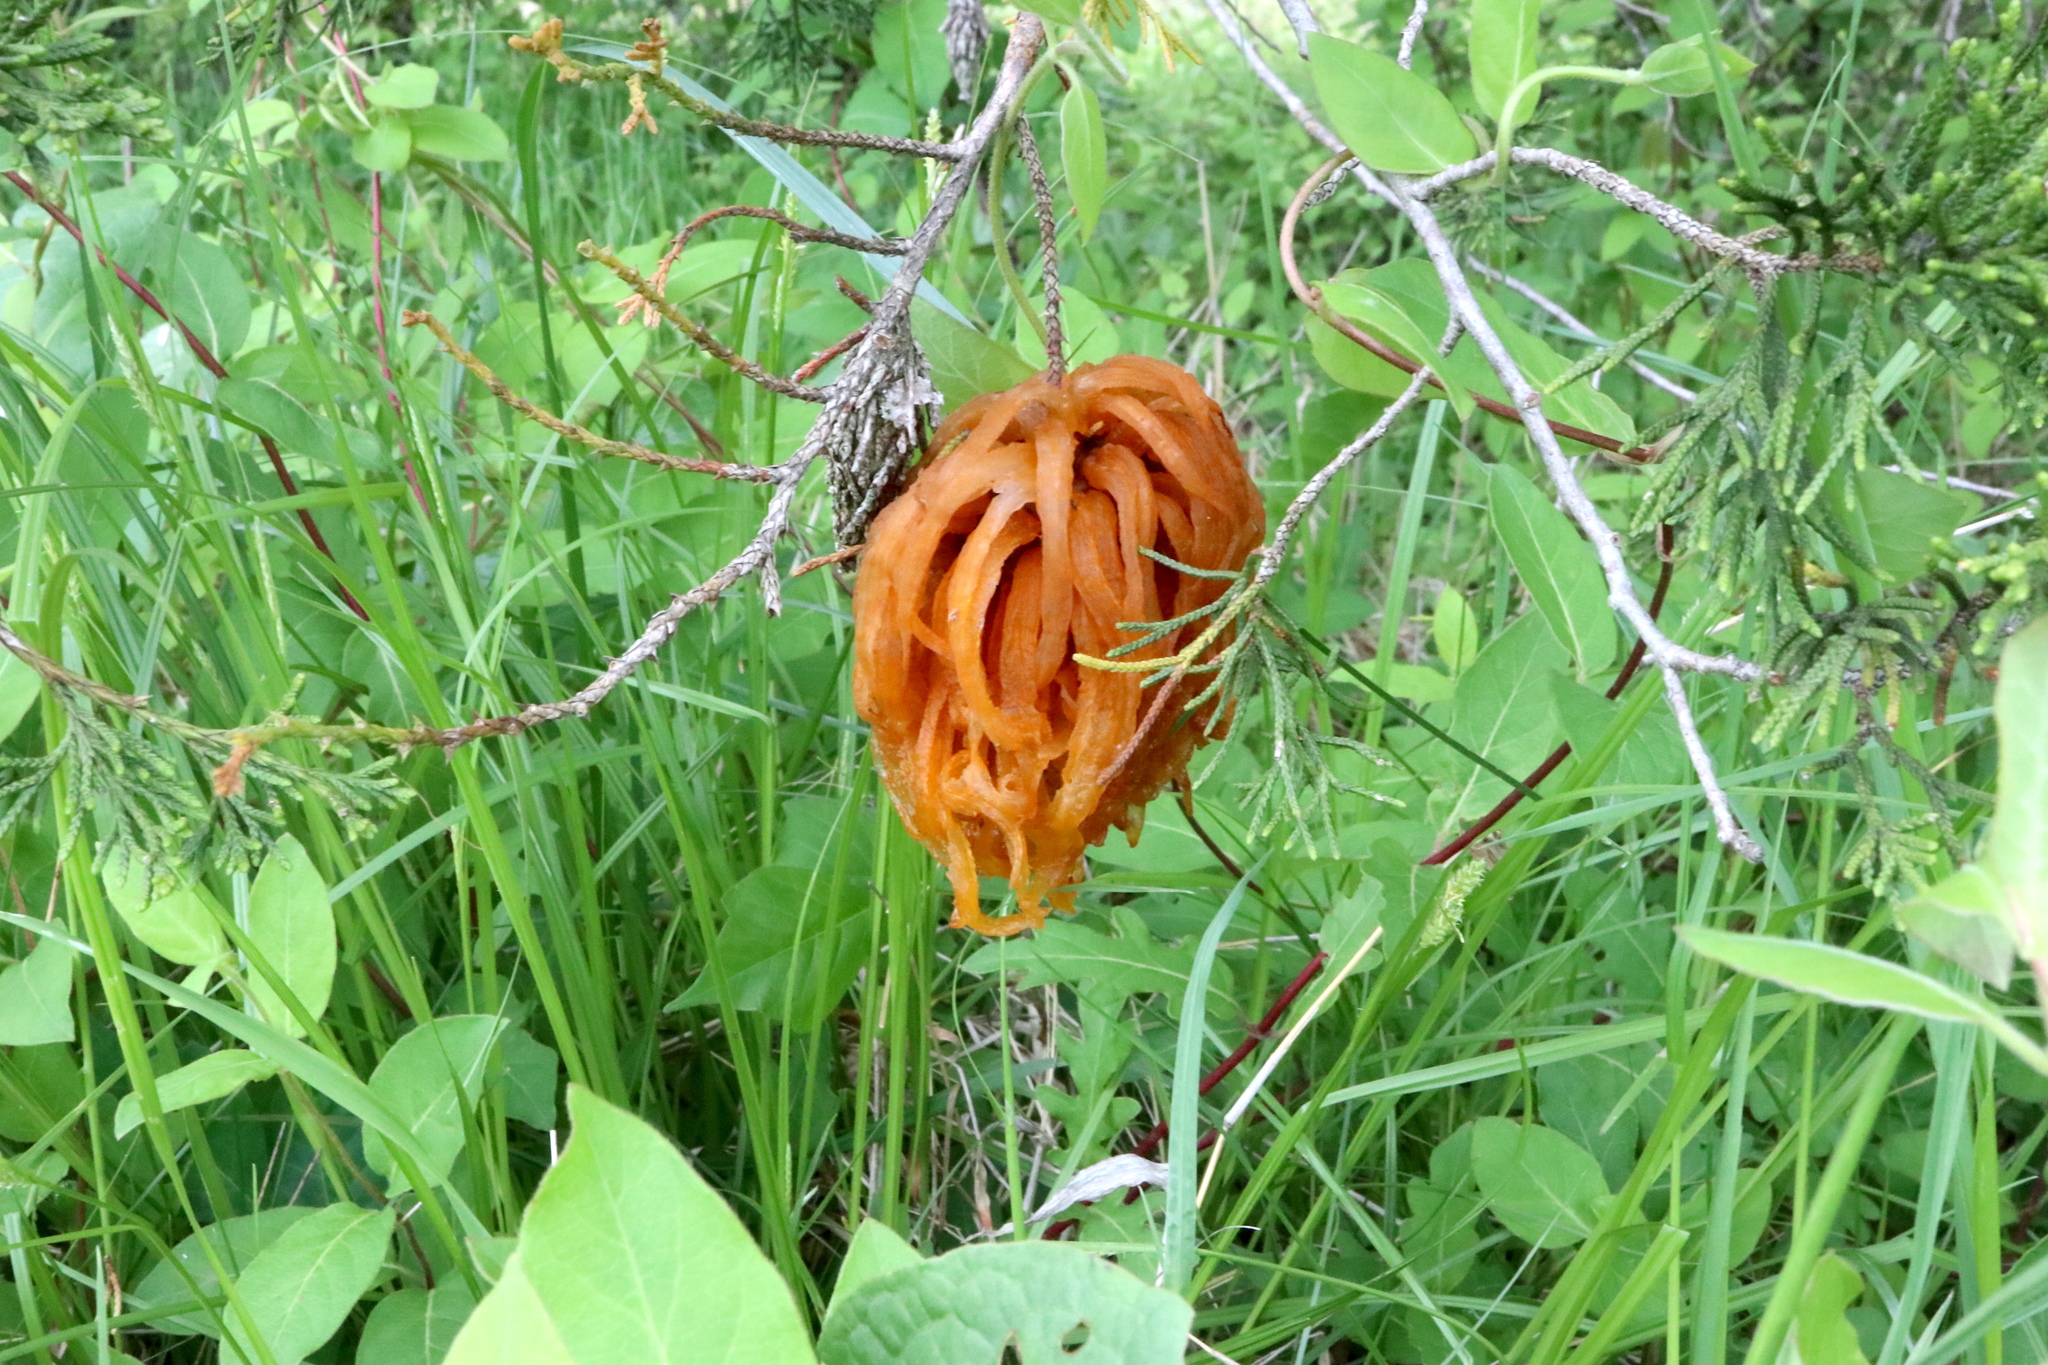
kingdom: Fungi
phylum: Basidiomycota
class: Pucciniomycetes
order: Pucciniales
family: Gymnosporangiaceae
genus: Gymnosporangium
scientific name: Gymnosporangium juniperi-virginianae
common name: Juniper-apple rust
